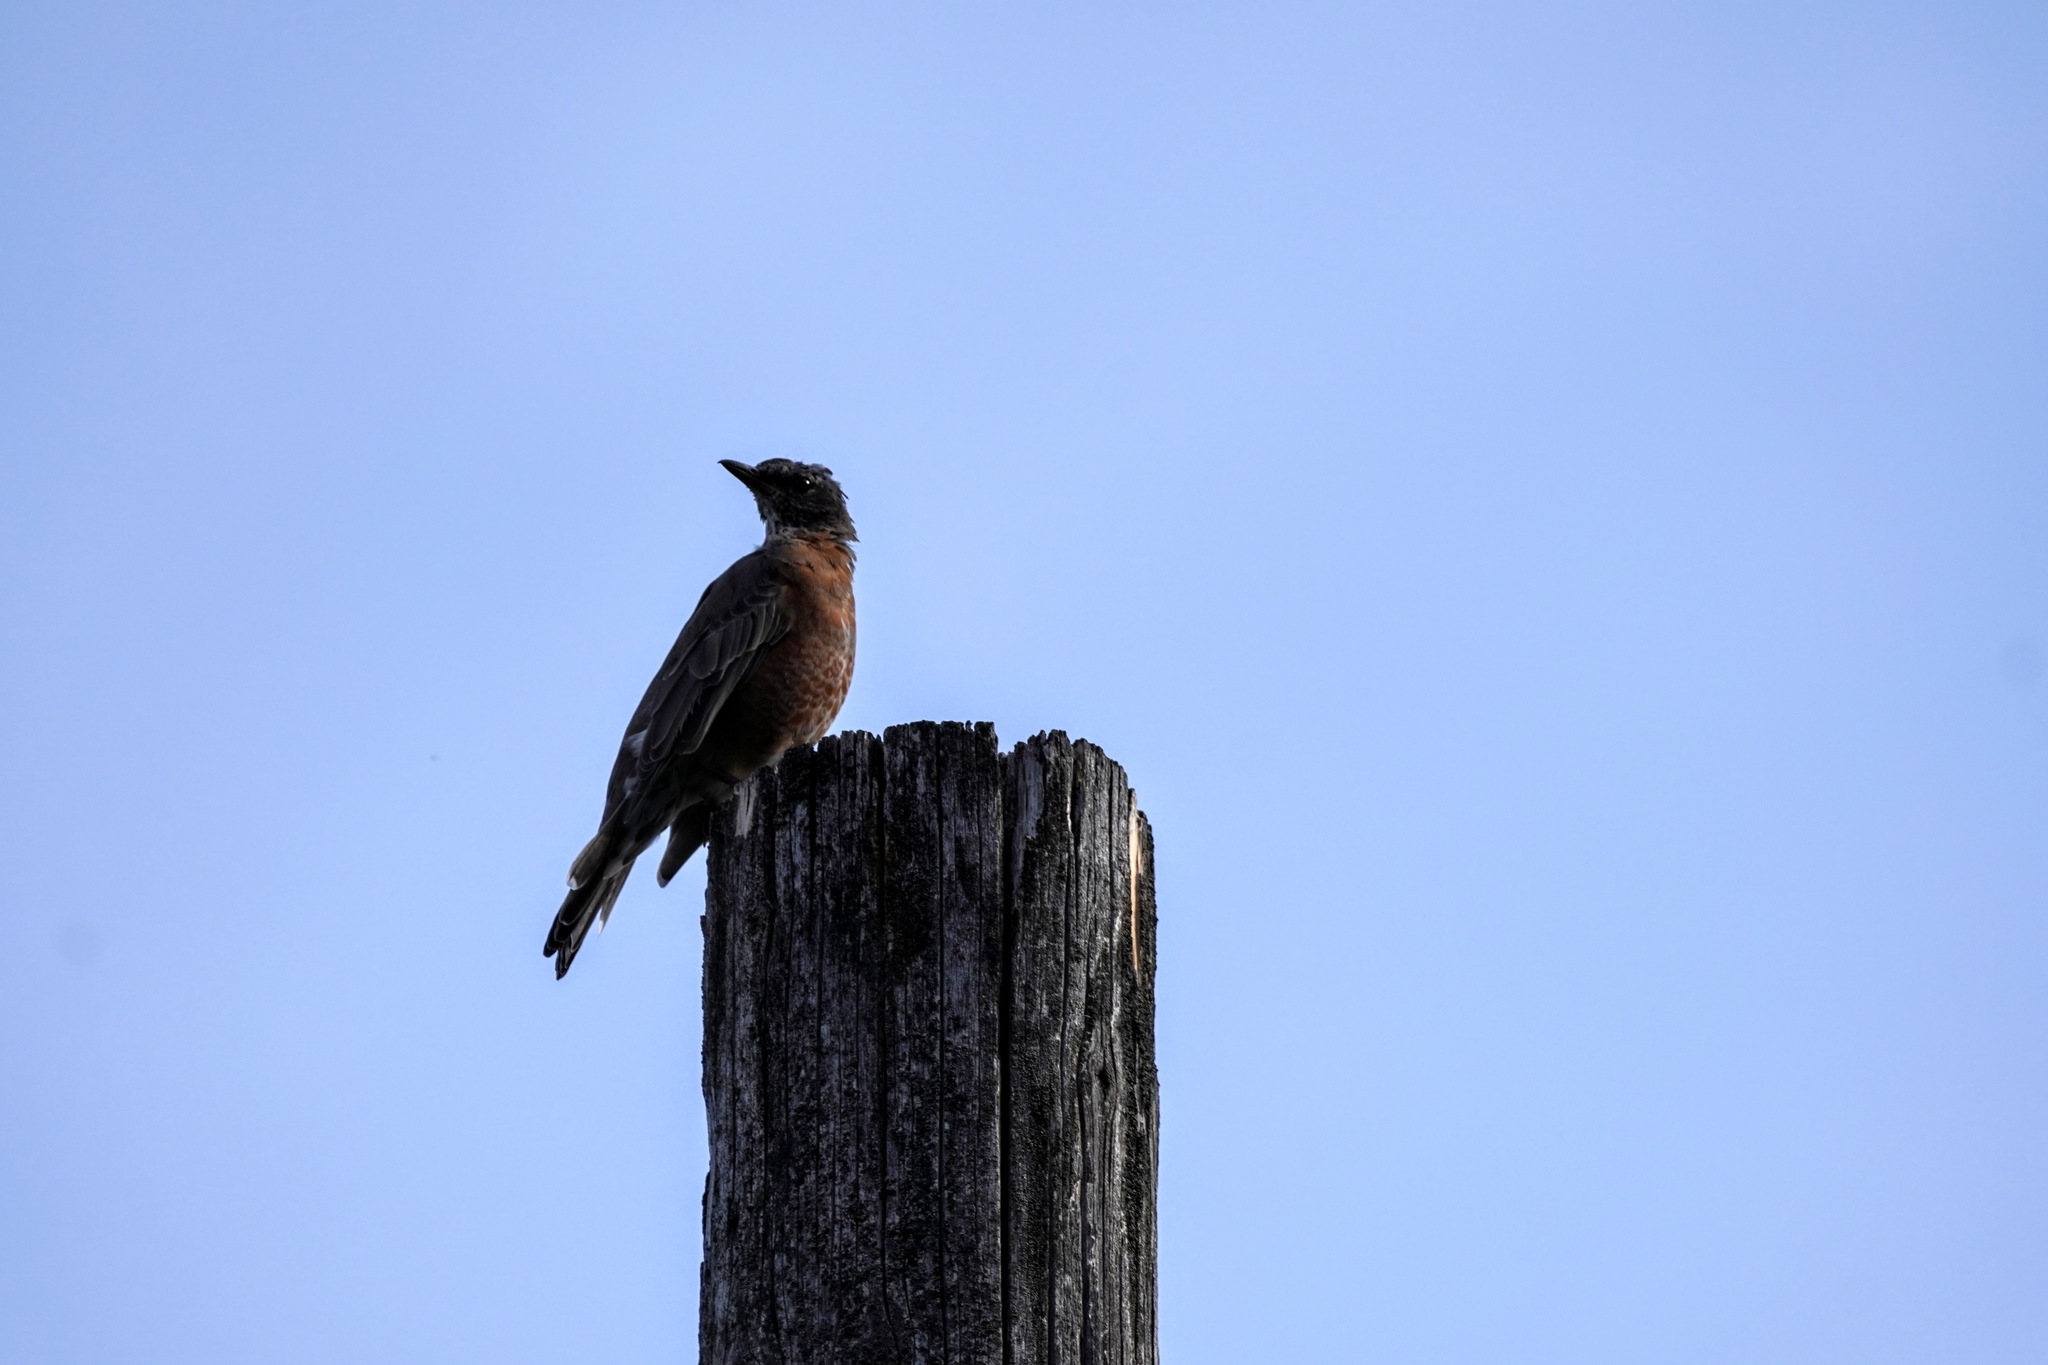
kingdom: Animalia
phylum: Chordata
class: Aves
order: Passeriformes
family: Turdidae
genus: Turdus
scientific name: Turdus migratorius
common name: American robin
